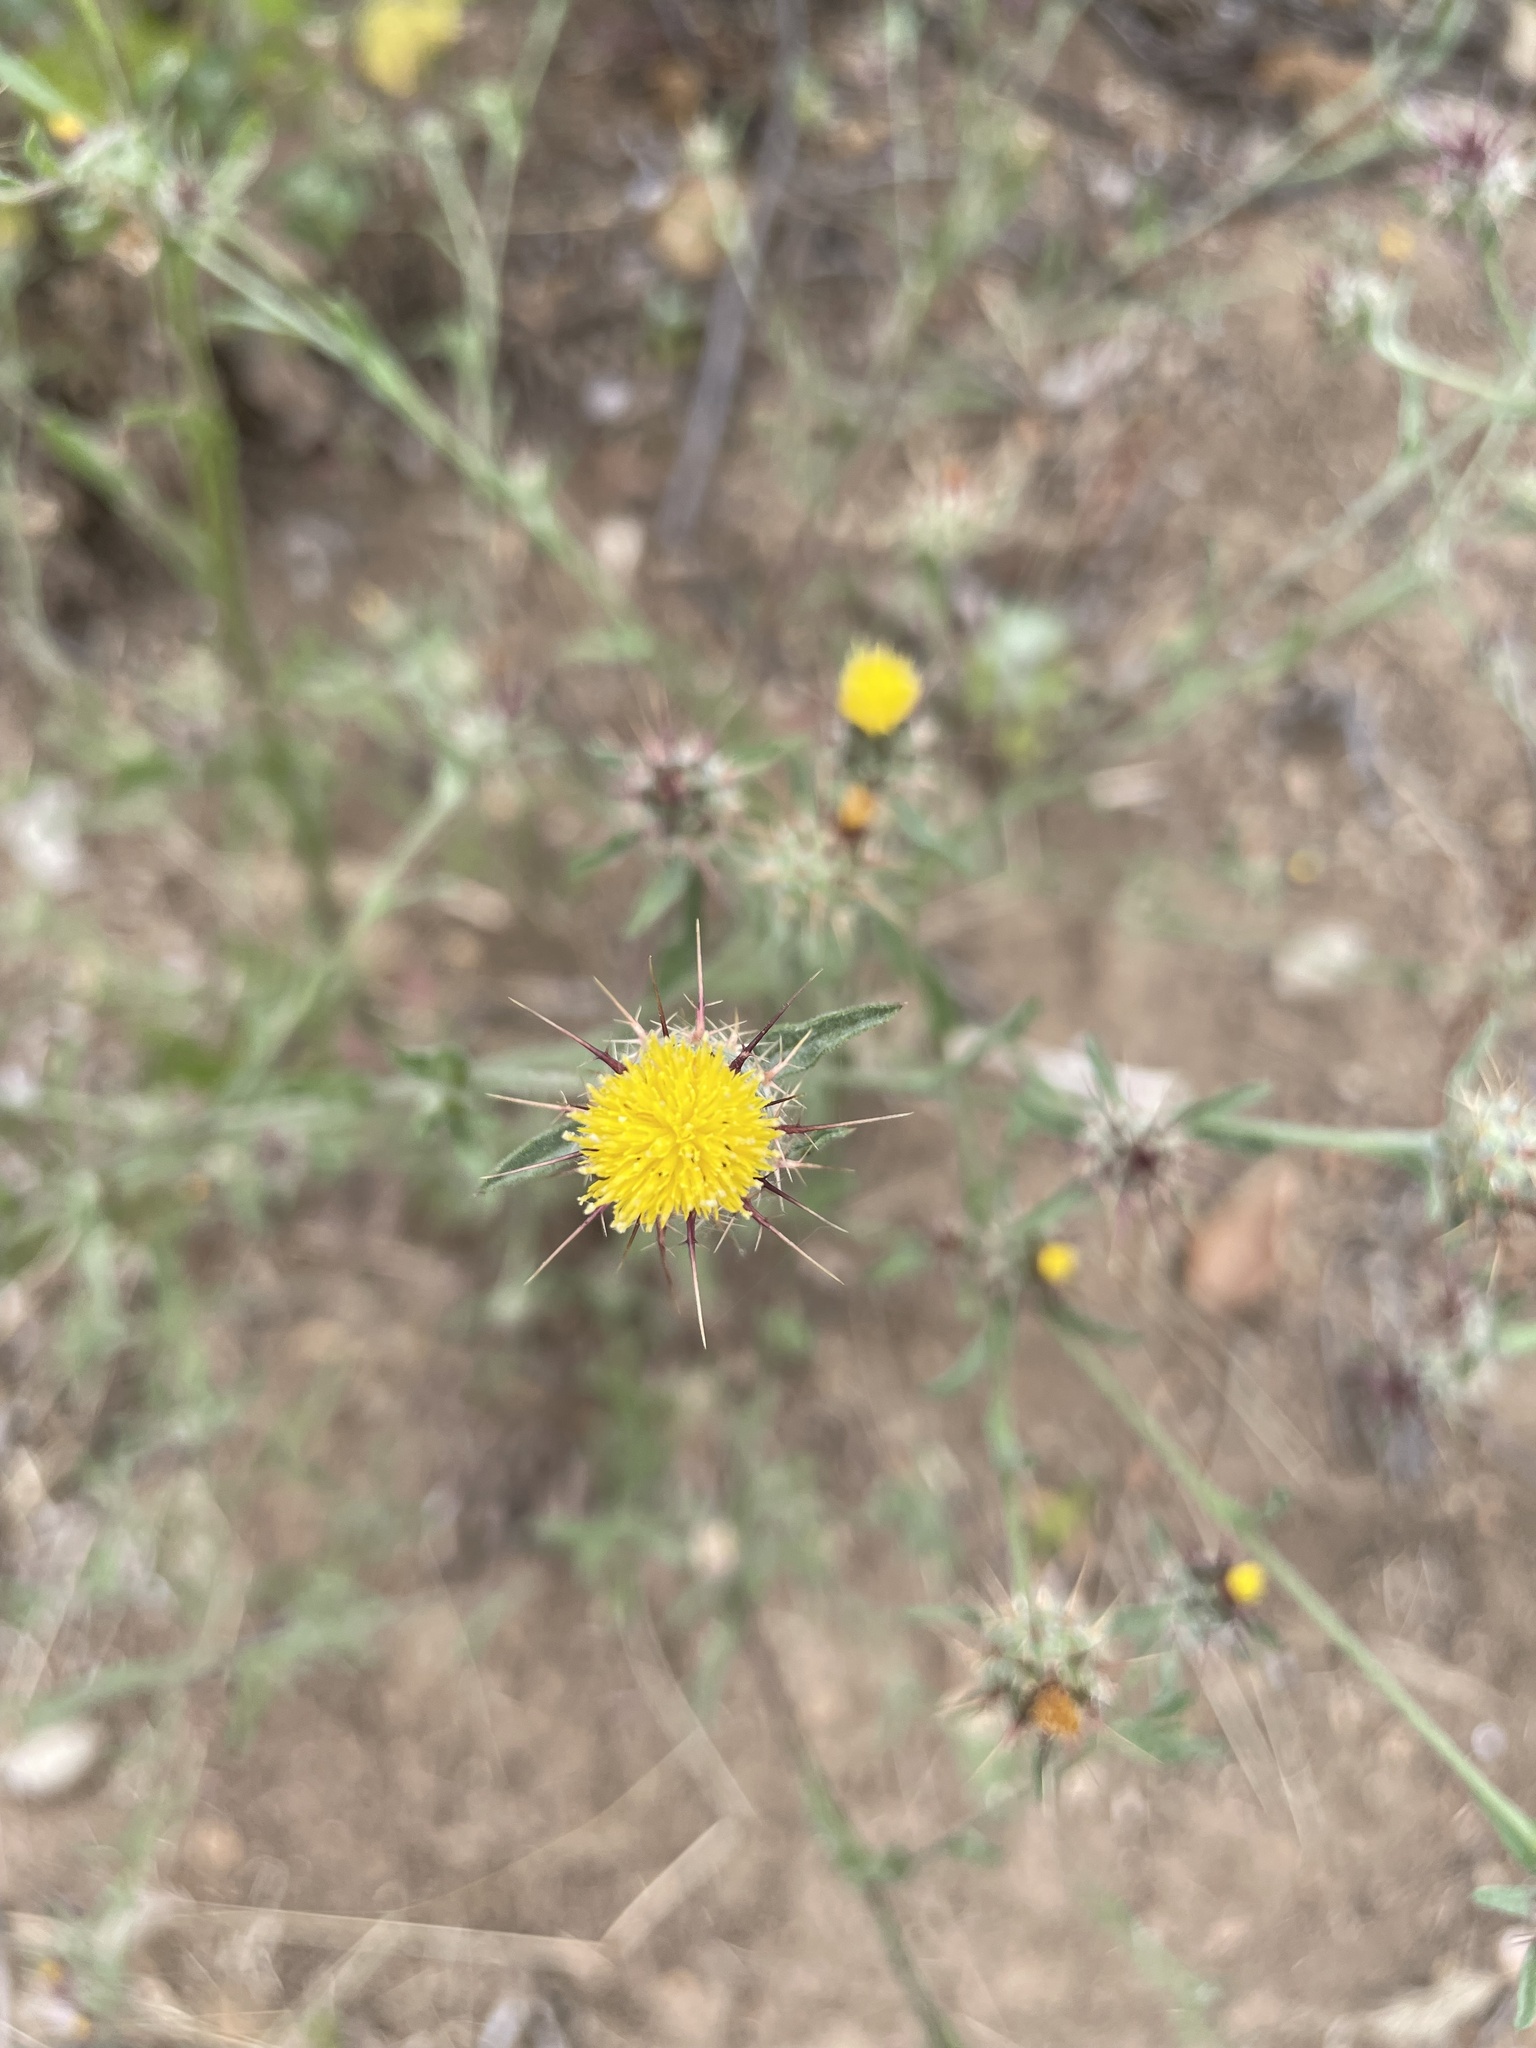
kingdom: Plantae
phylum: Tracheophyta
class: Magnoliopsida
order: Asterales
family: Asteraceae
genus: Centaurea
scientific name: Centaurea melitensis
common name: Maltese star-thistle
